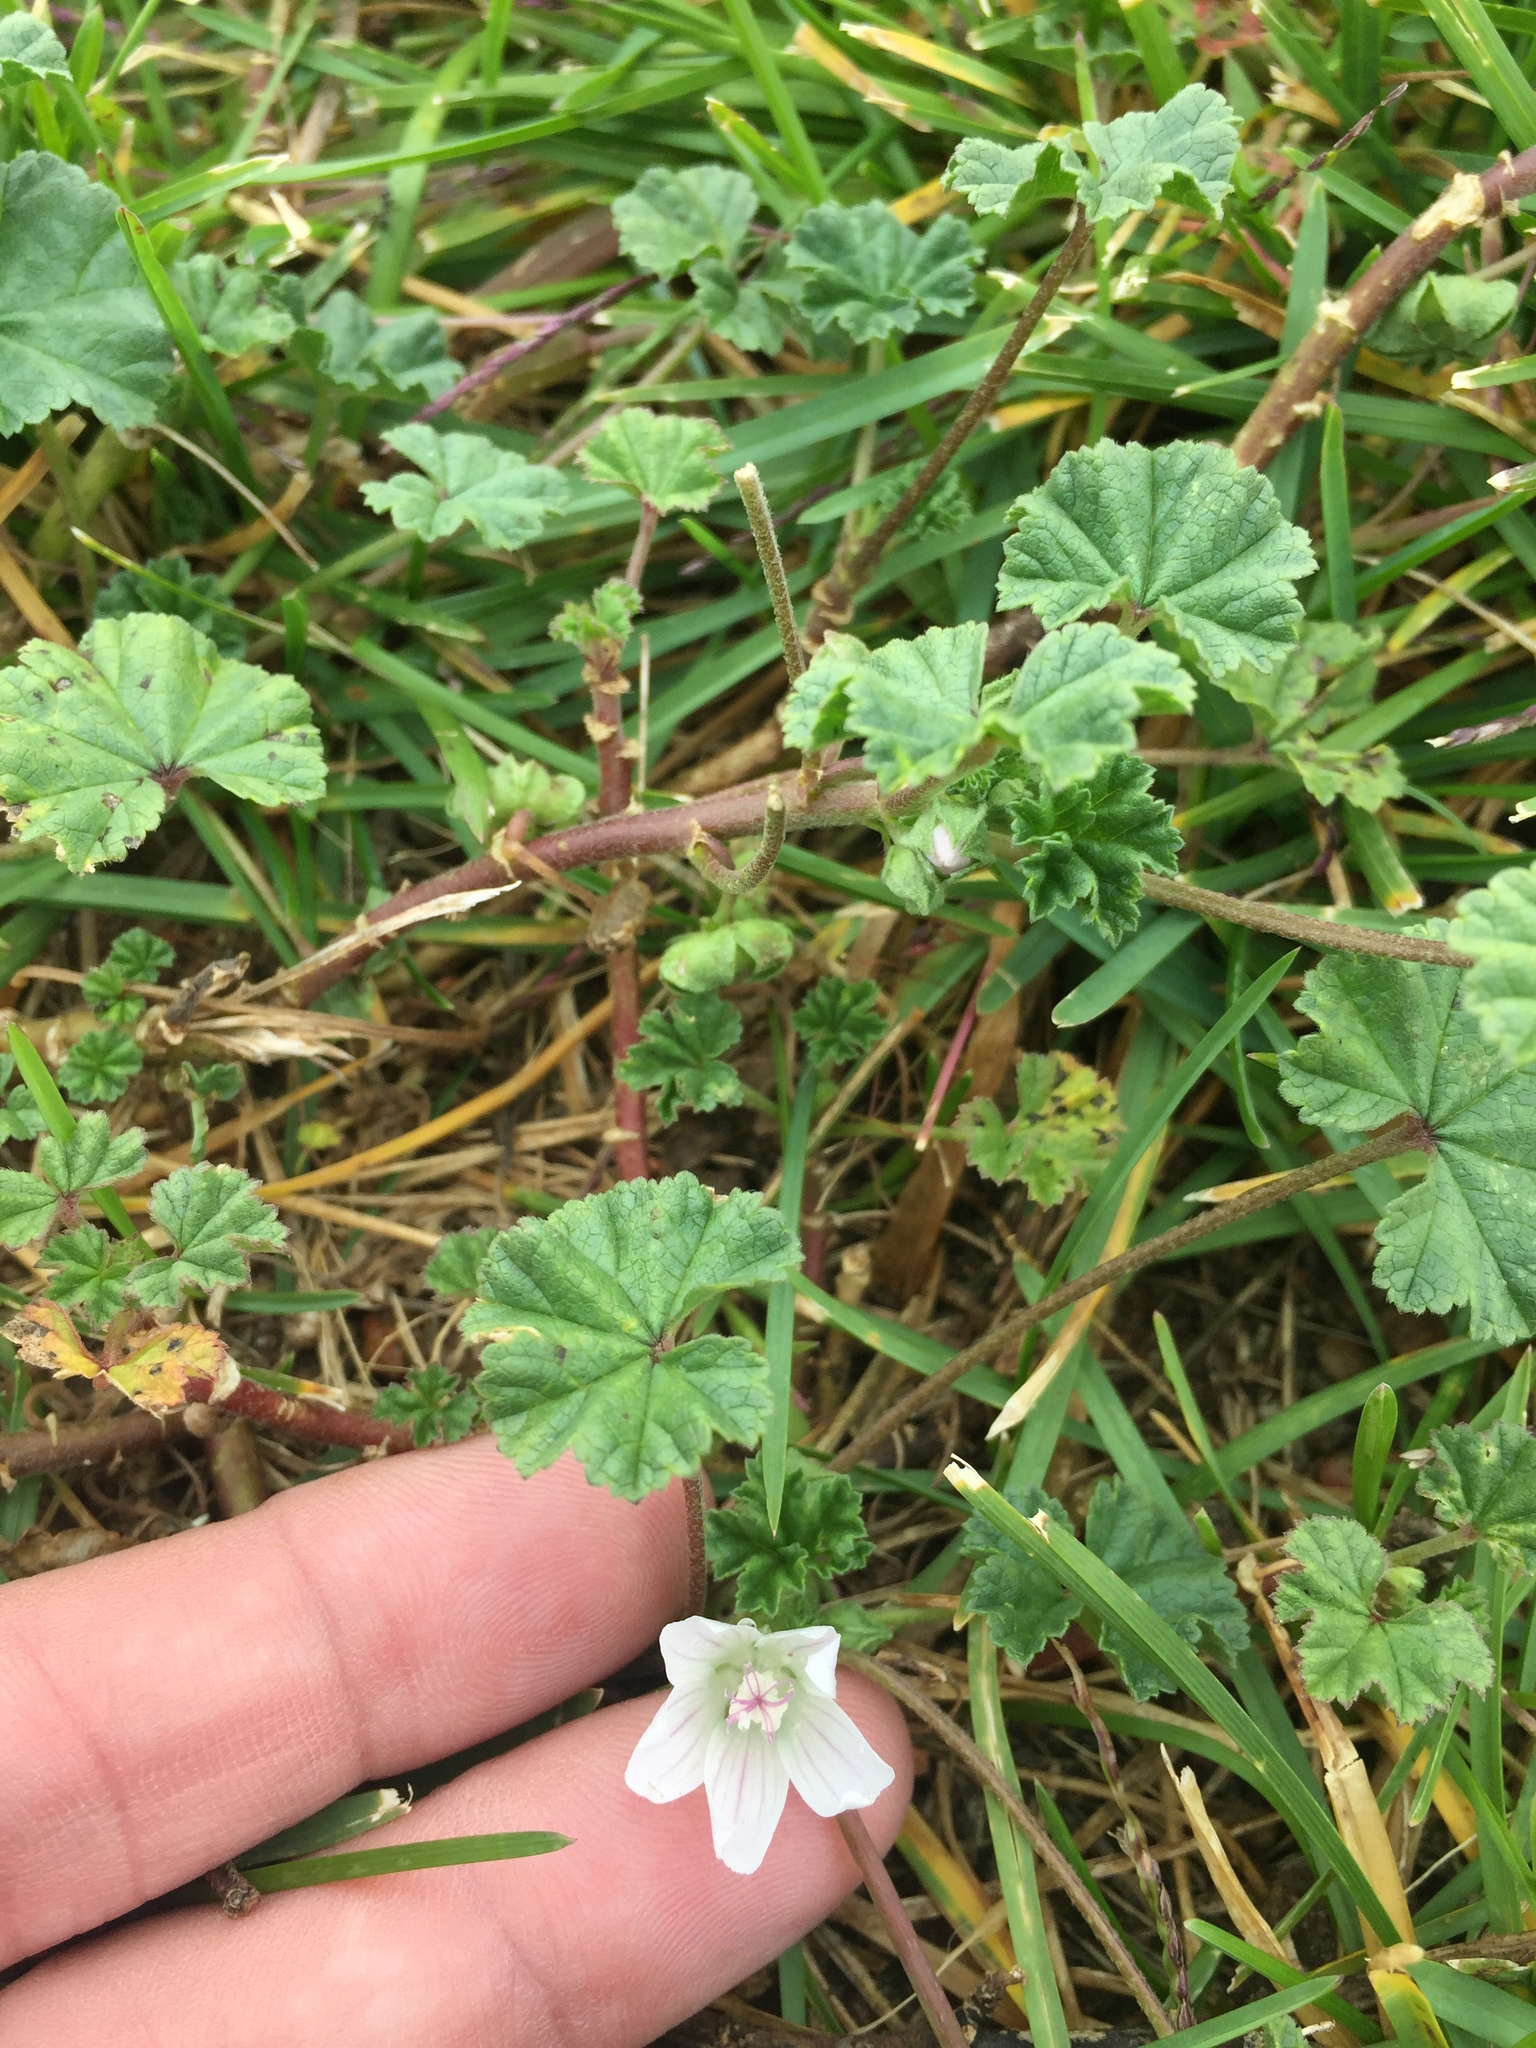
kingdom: Plantae
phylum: Tracheophyta
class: Magnoliopsida
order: Malvales
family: Malvaceae
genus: Malva
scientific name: Malva neglecta
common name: Common mallow
